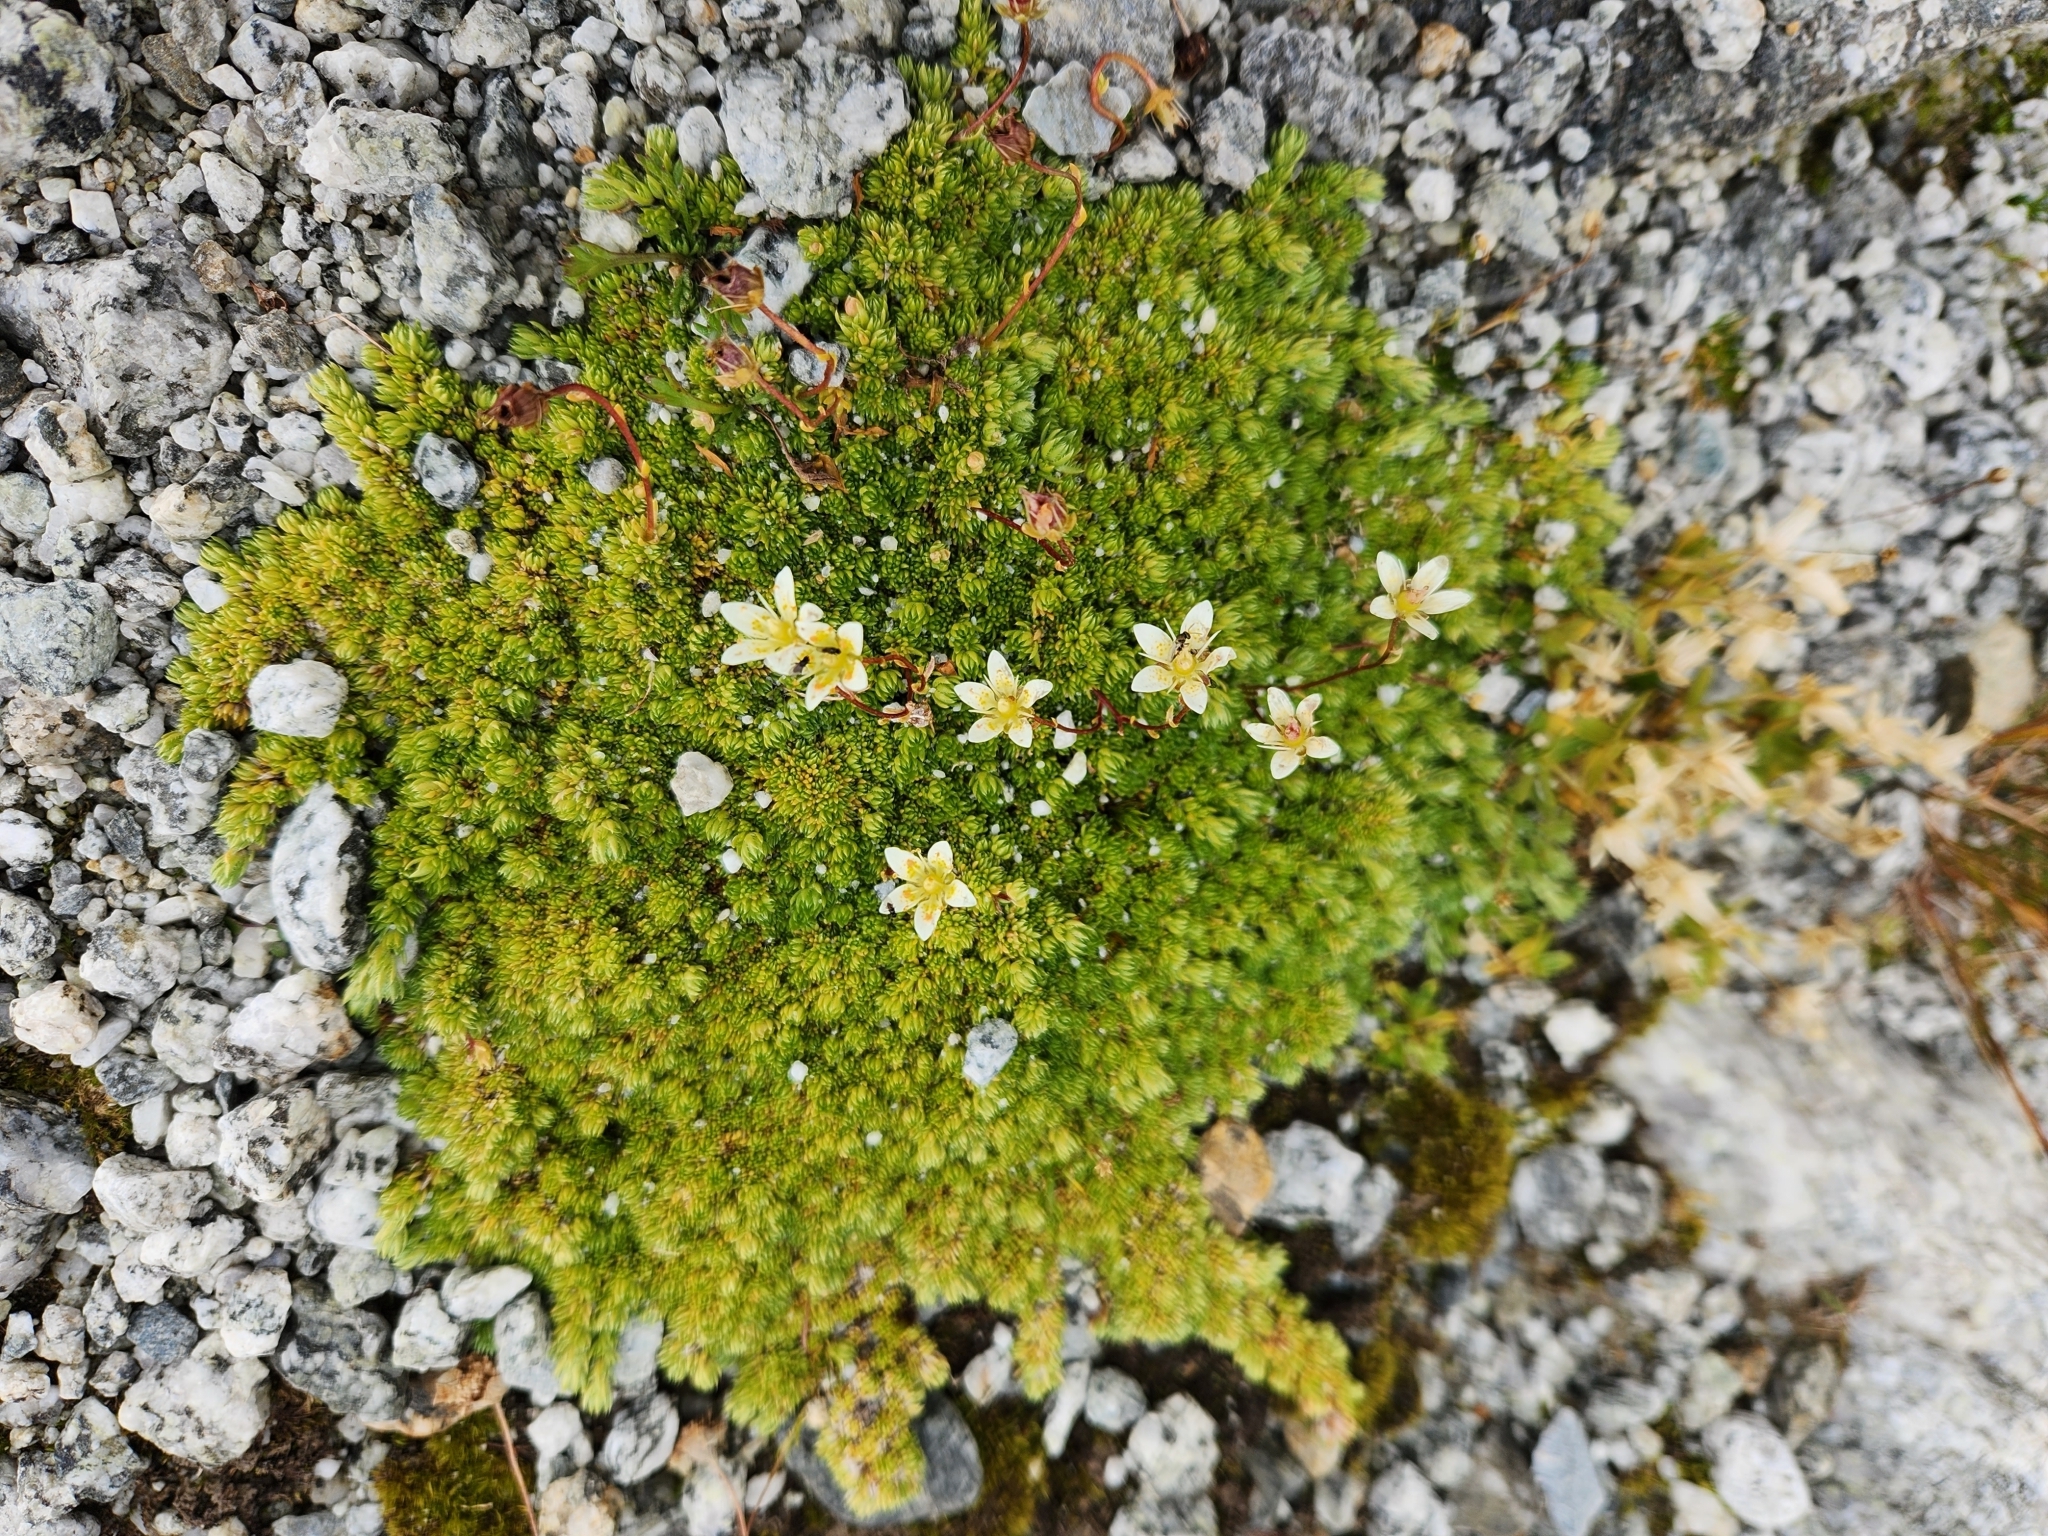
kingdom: Plantae
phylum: Tracheophyta
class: Magnoliopsida
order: Saxifragales
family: Saxifragaceae
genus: Saxifraga
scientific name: Saxifraga bryoides
